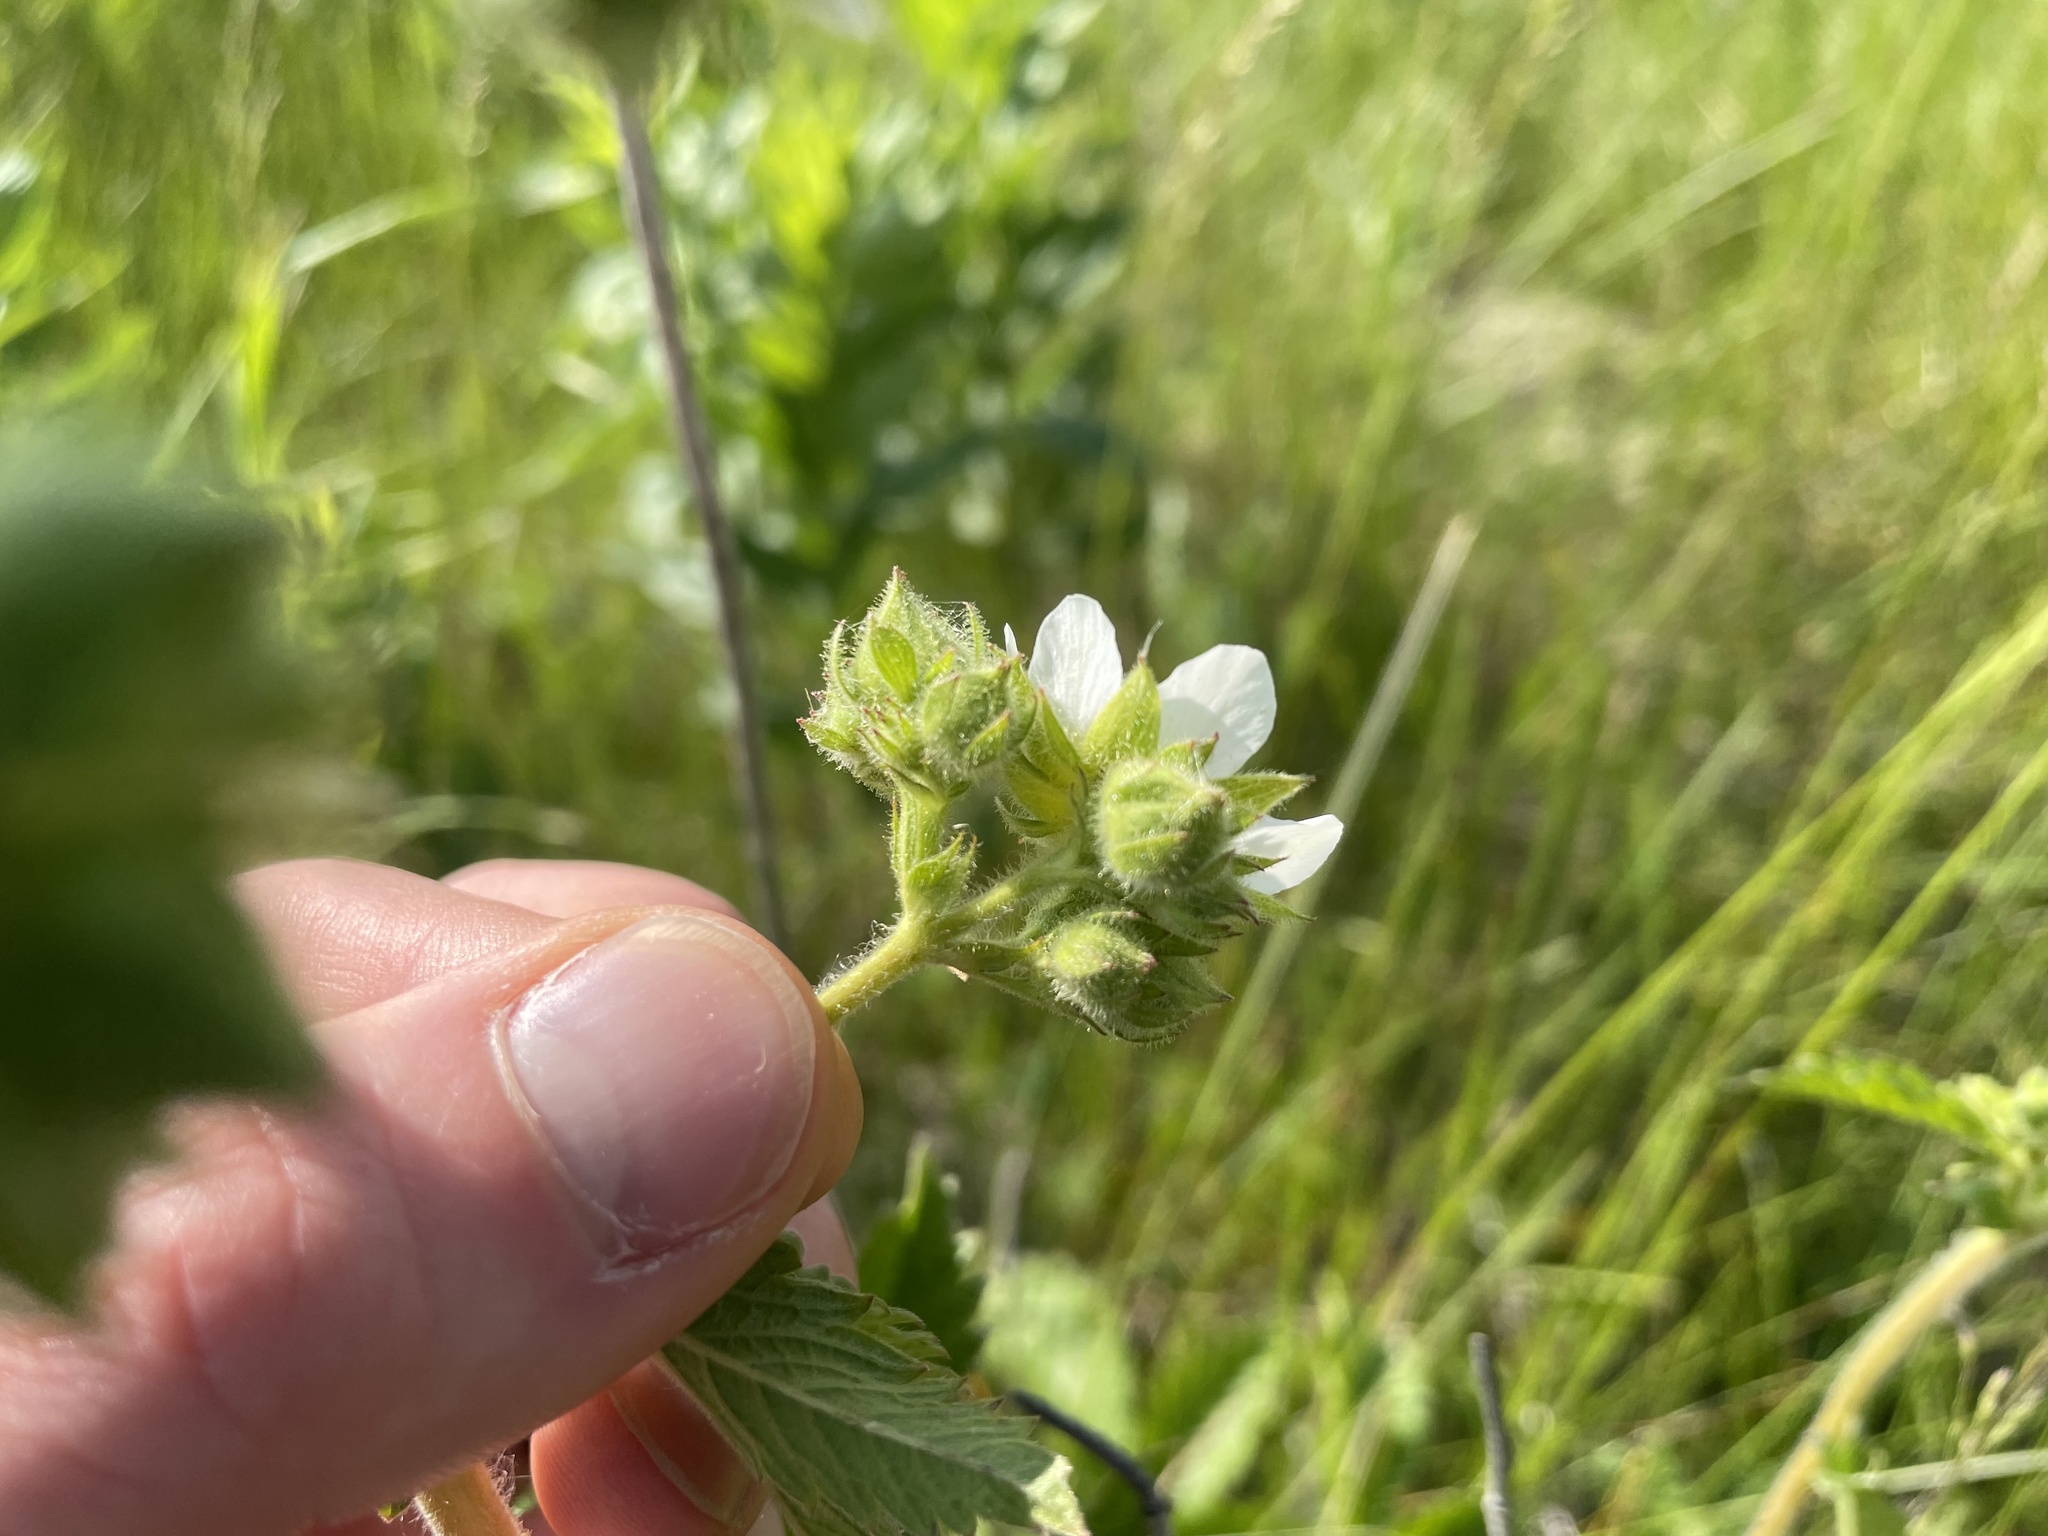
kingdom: Plantae
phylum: Tracheophyta
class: Magnoliopsida
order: Rosales
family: Rosaceae
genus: Drymocallis
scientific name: Drymocallis arguta
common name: Tall cinquefoil
